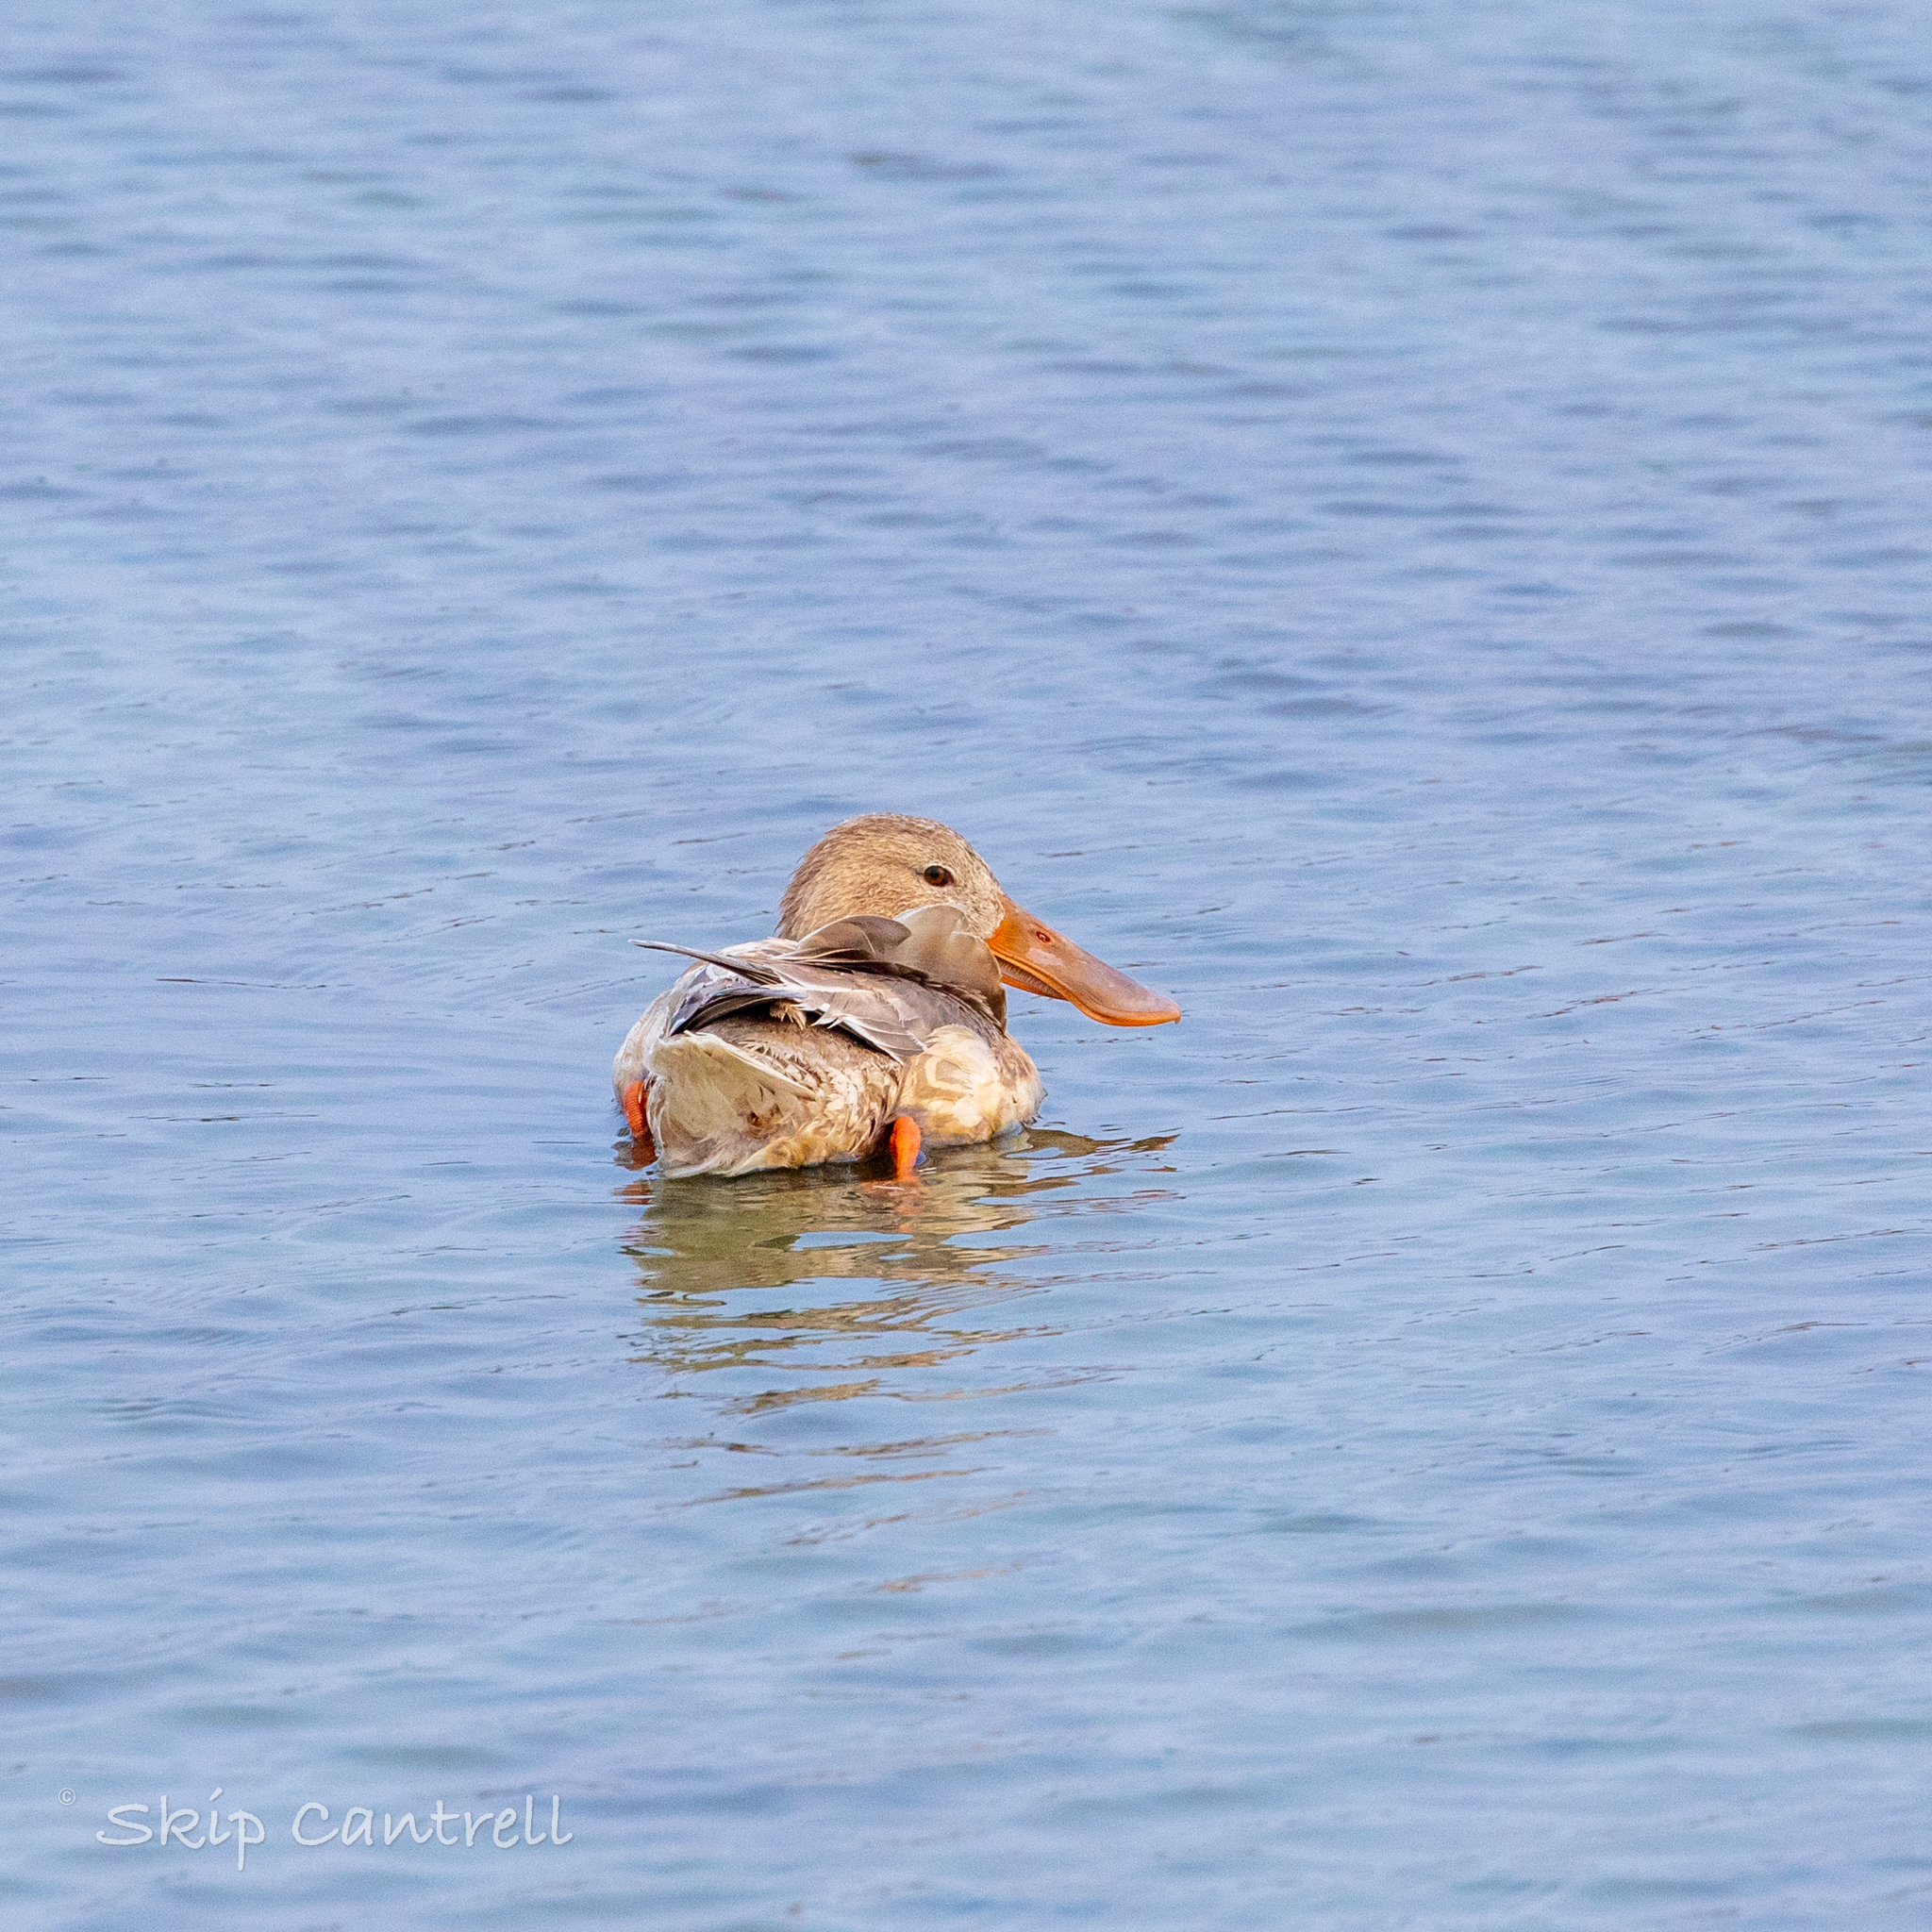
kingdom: Animalia
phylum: Chordata
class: Aves
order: Anseriformes
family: Anatidae
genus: Spatula
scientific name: Spatula clypeata
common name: Northern shoveler
